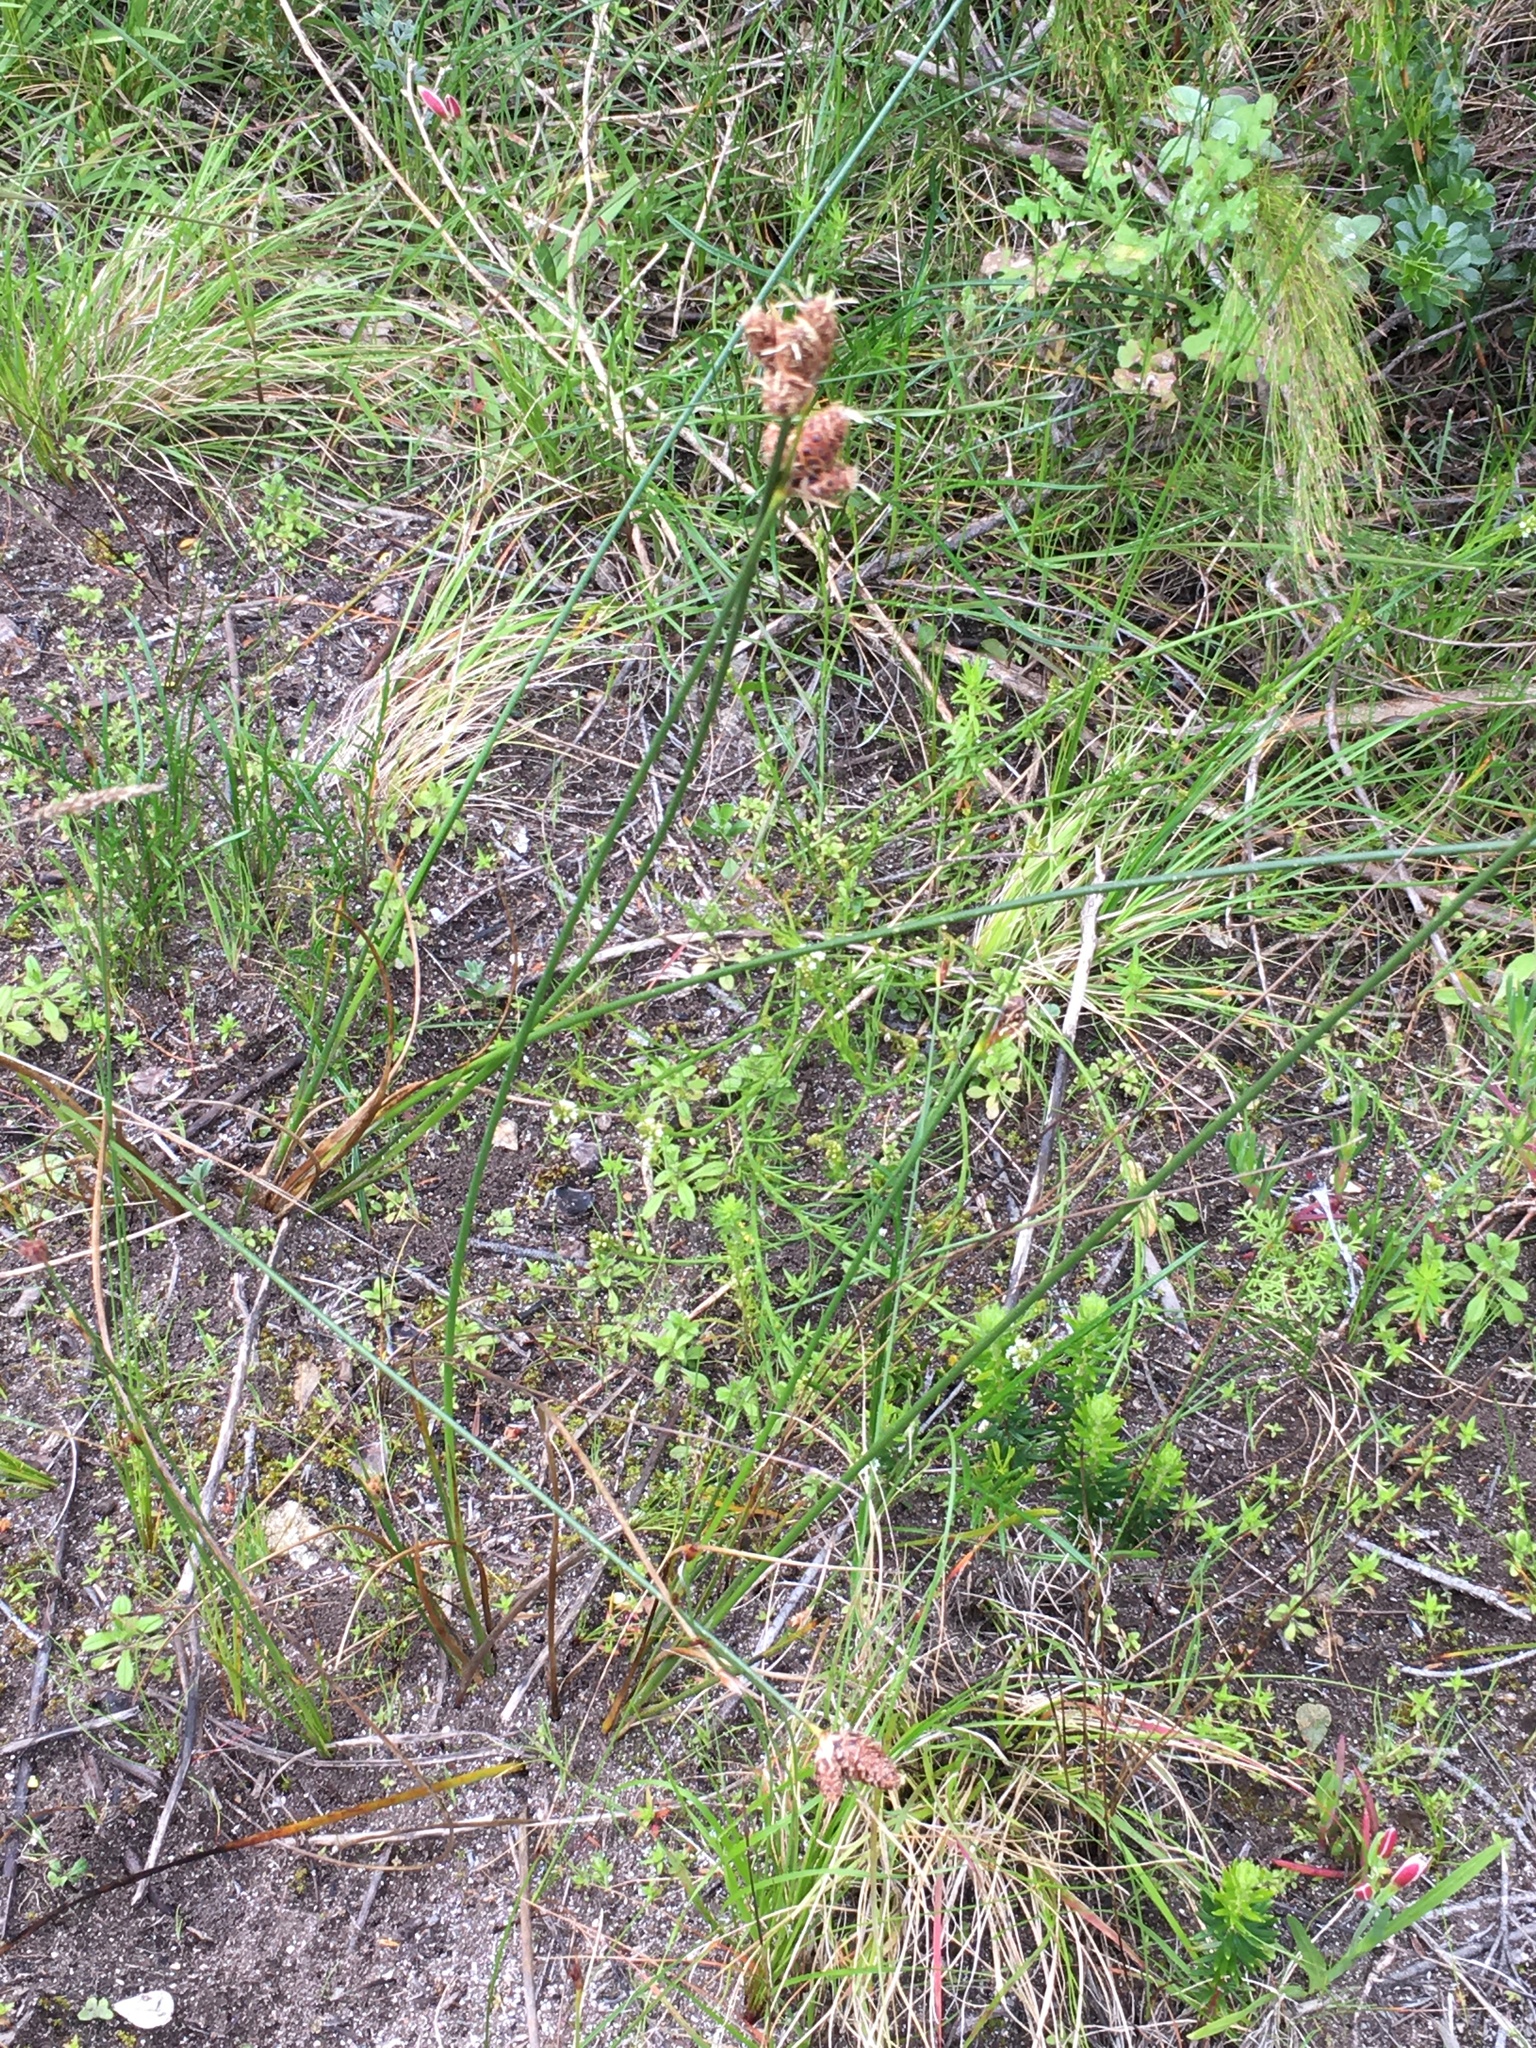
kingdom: Plantae
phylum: Tracheophyta
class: Liliopsida
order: Poales
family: Cyperaceae
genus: Hellmuthia
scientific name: Hellmuthia membranacea
